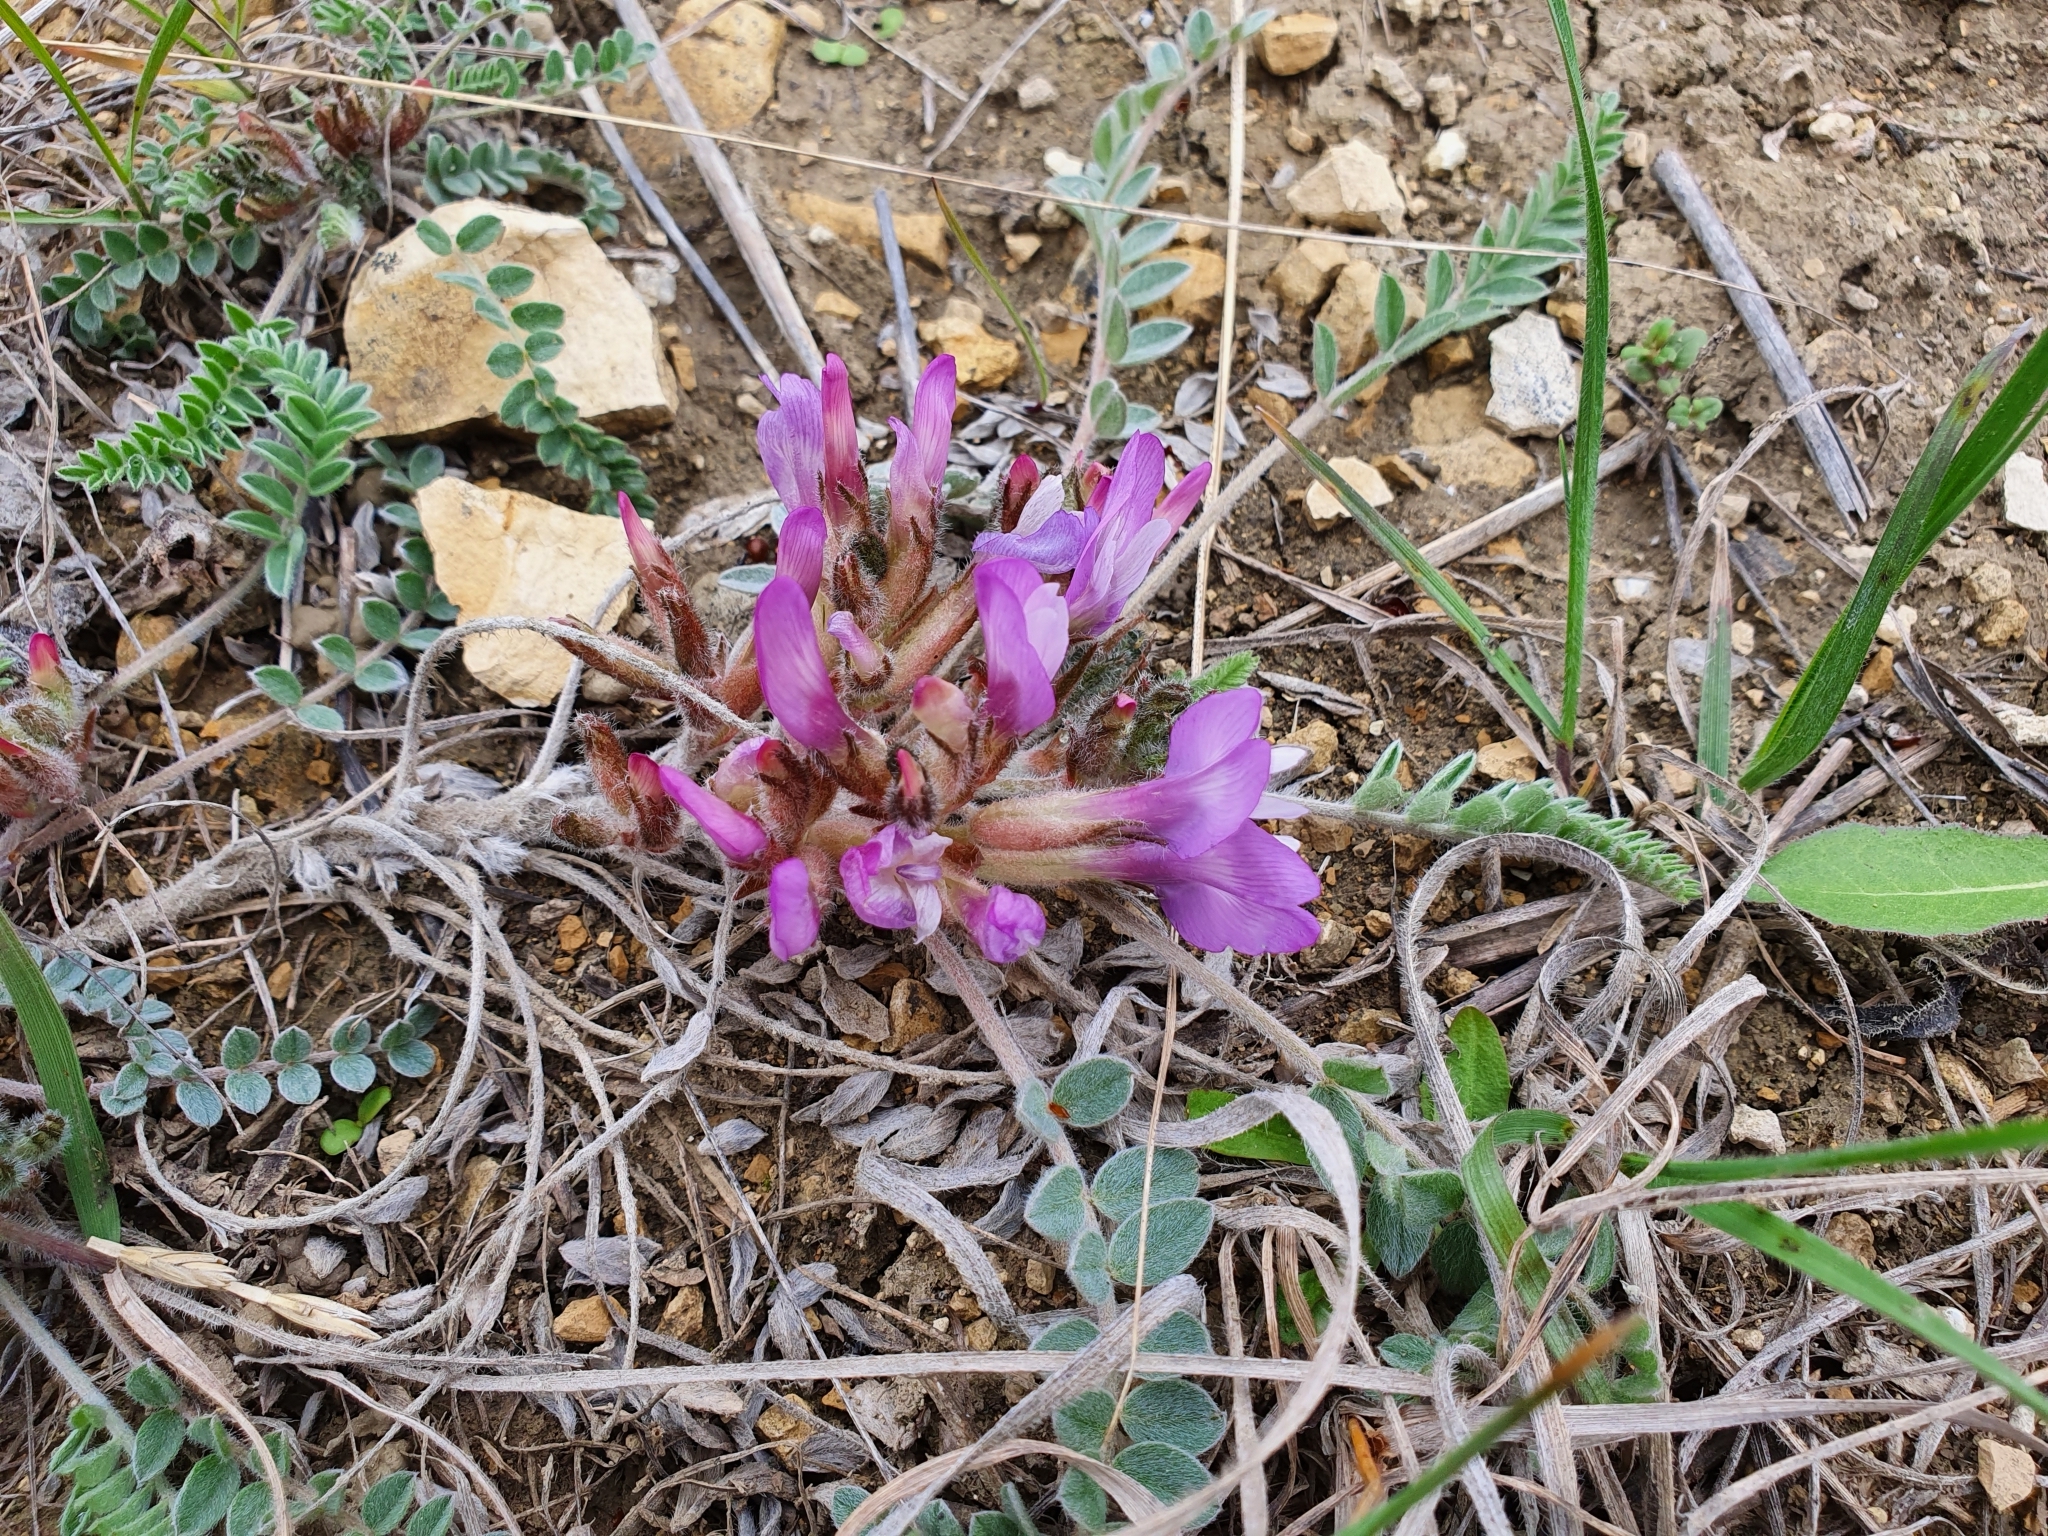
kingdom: Plantae
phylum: Tracheophyta
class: Magnoliopsida
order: Fabales
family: Fabaceae
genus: Astragalus
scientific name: Astragalus testiculatus
